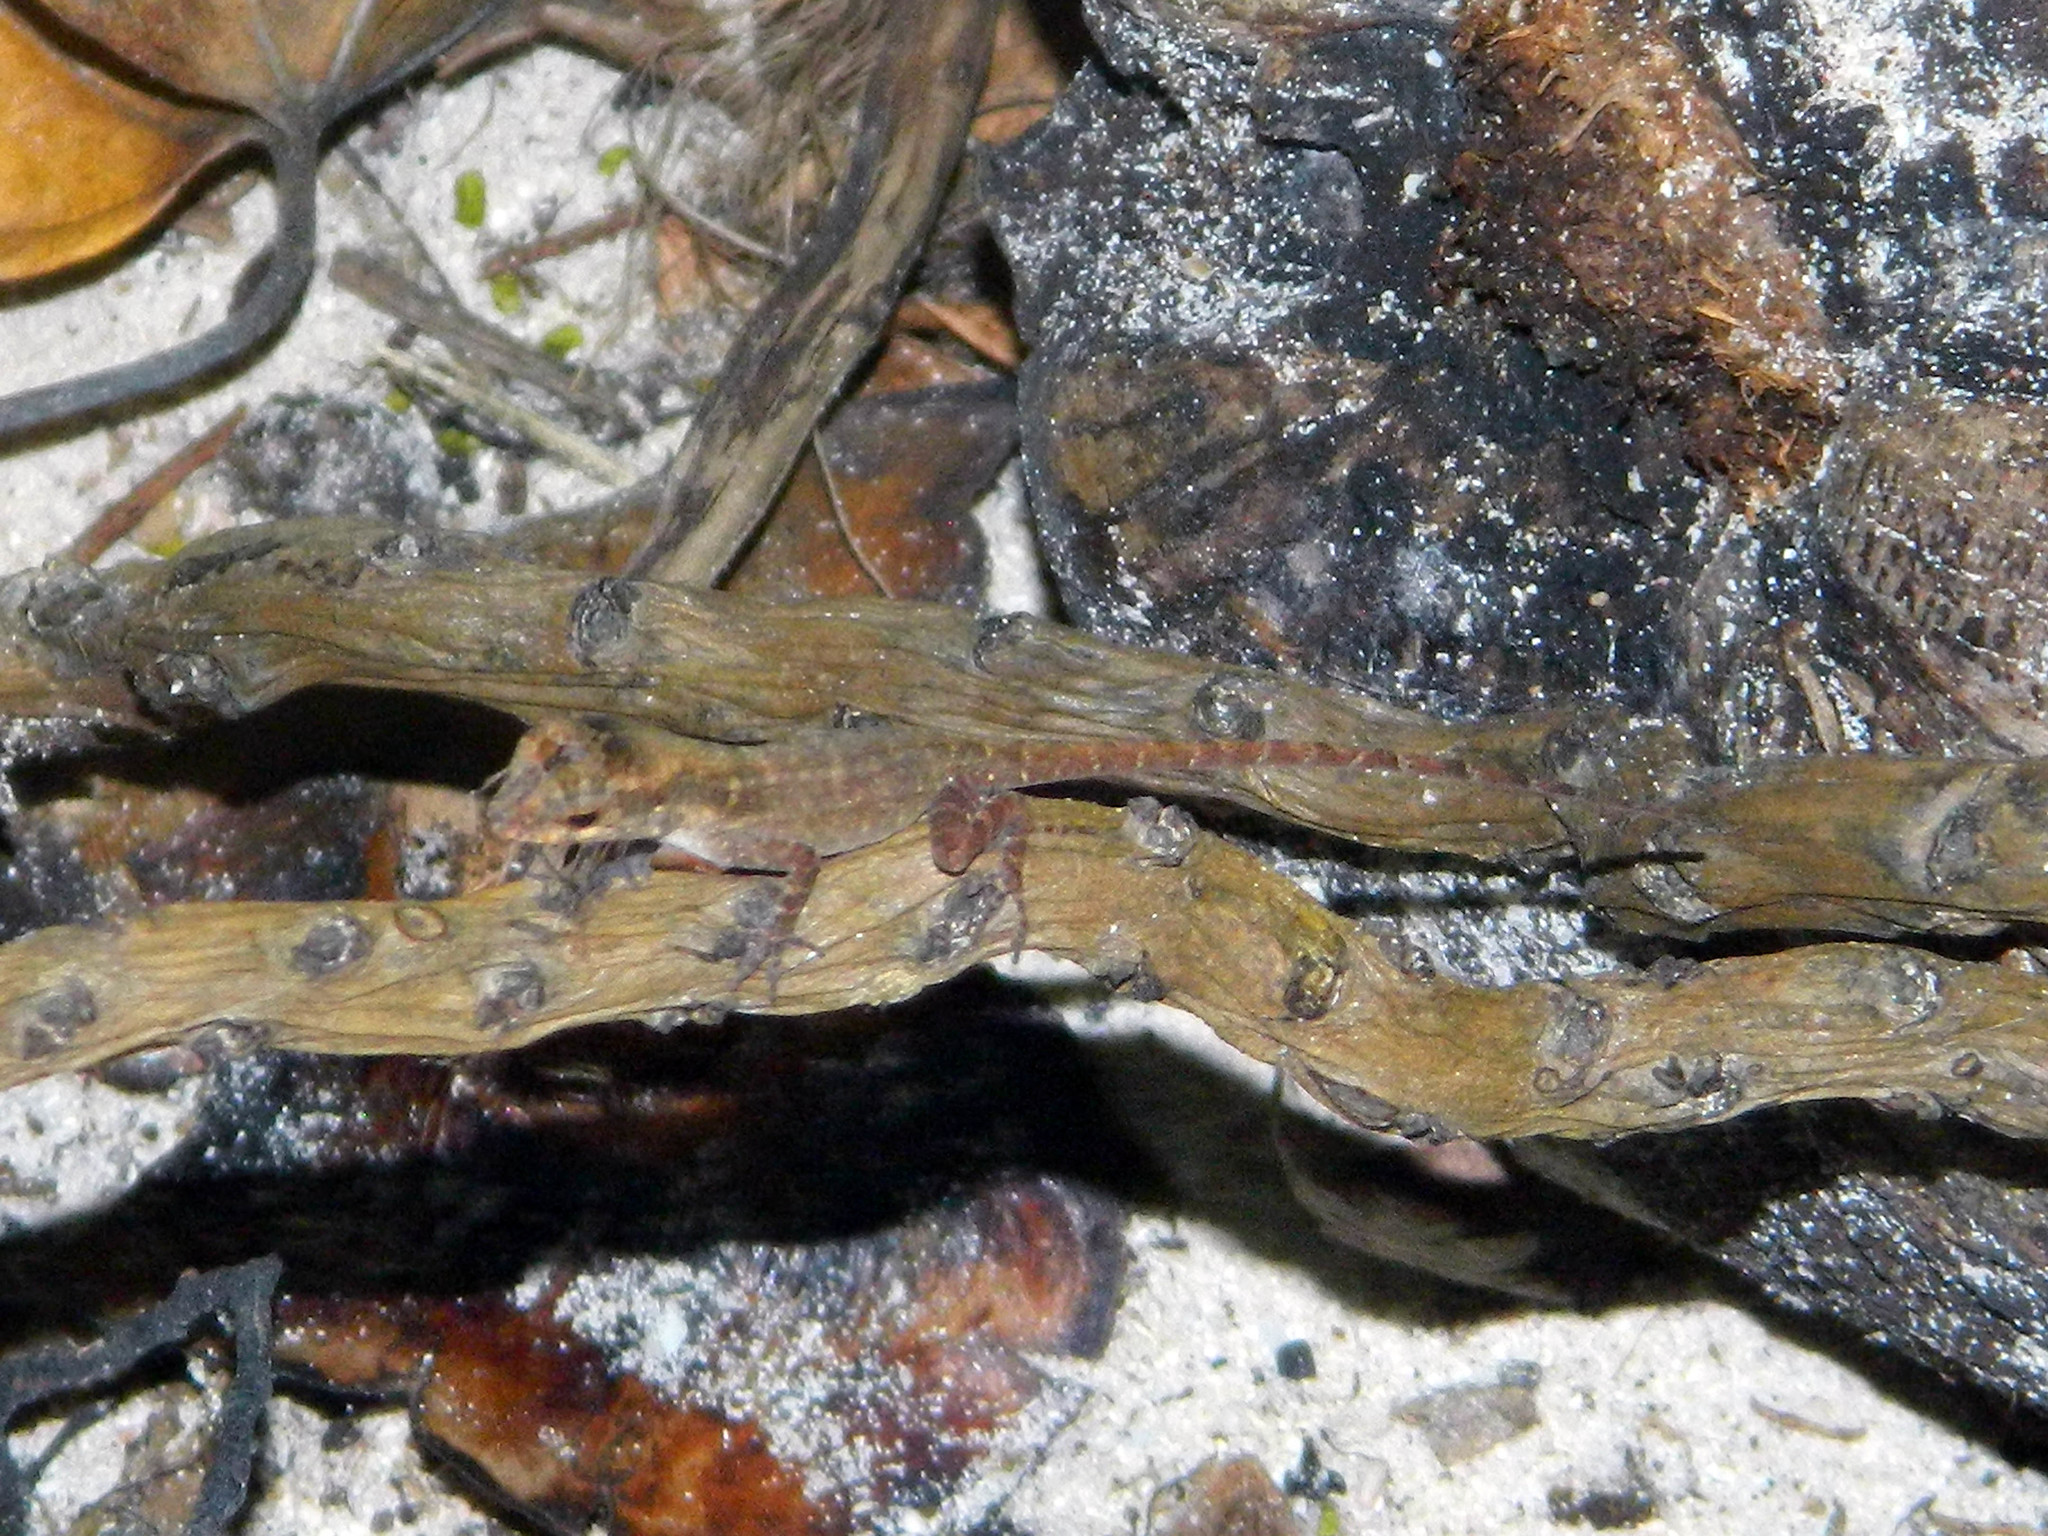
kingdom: Animalia
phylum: Chordata
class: Squamata
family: Dactyloidae
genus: Anolis
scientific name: Anolis cristatellus
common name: Crested anole
